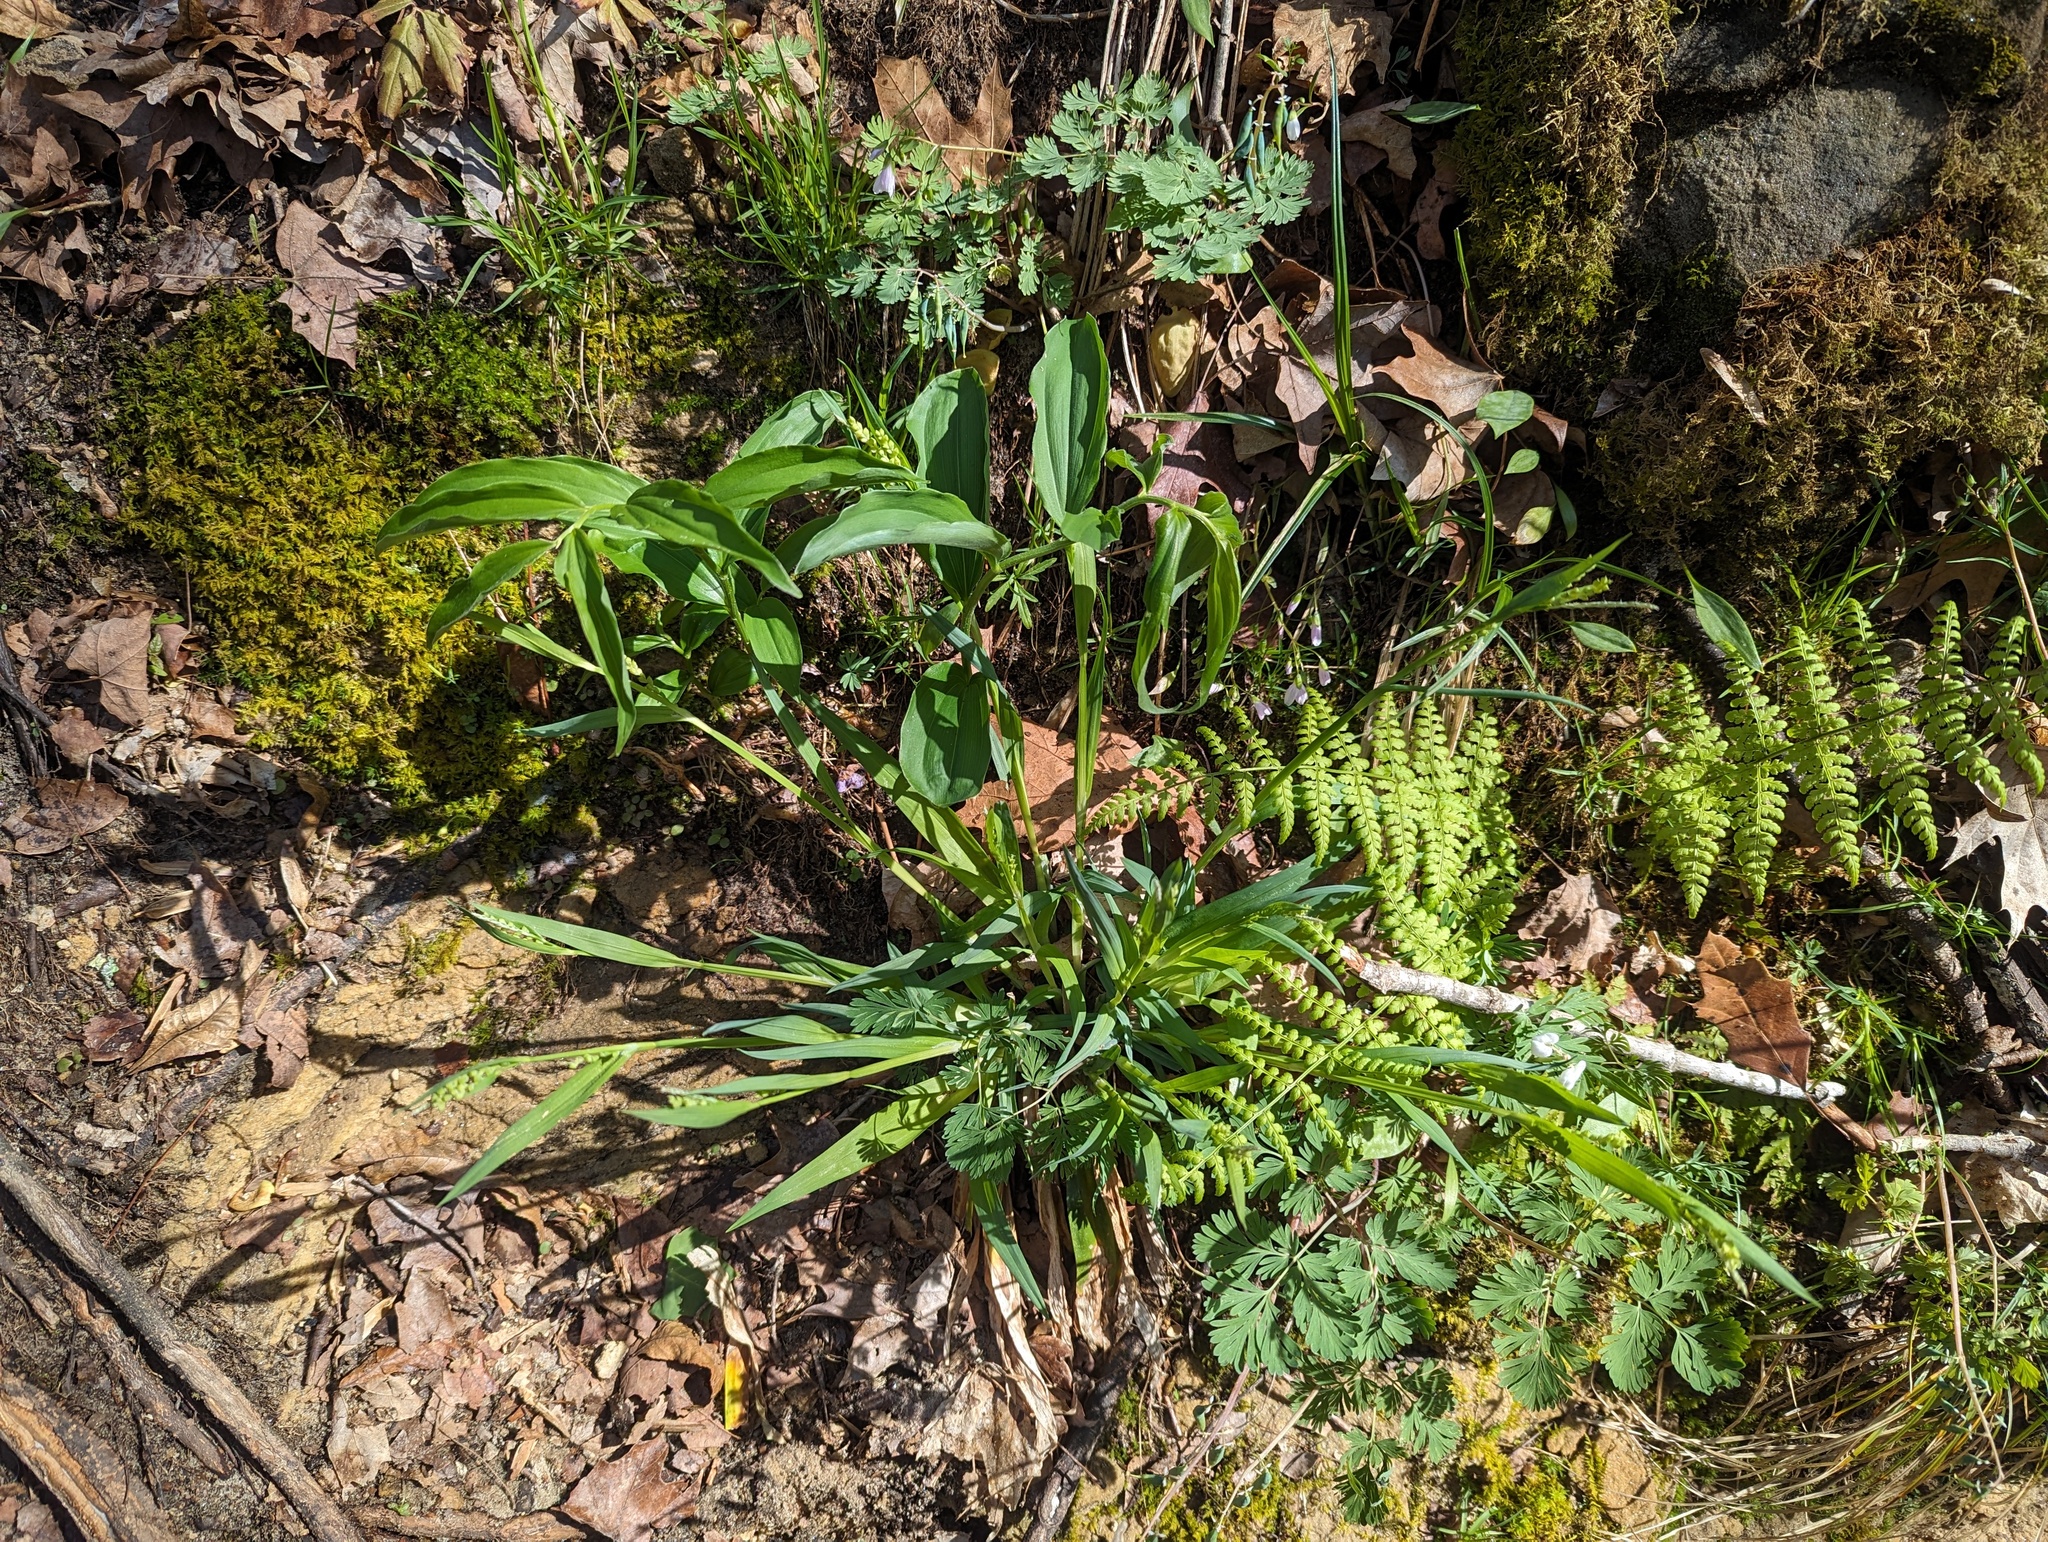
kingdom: Plantae
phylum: Tracheophyta
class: Liliopsida
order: Poales
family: Cyperaceae
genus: Carex
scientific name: Carex albursina
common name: Blunt-scale wood sedge
